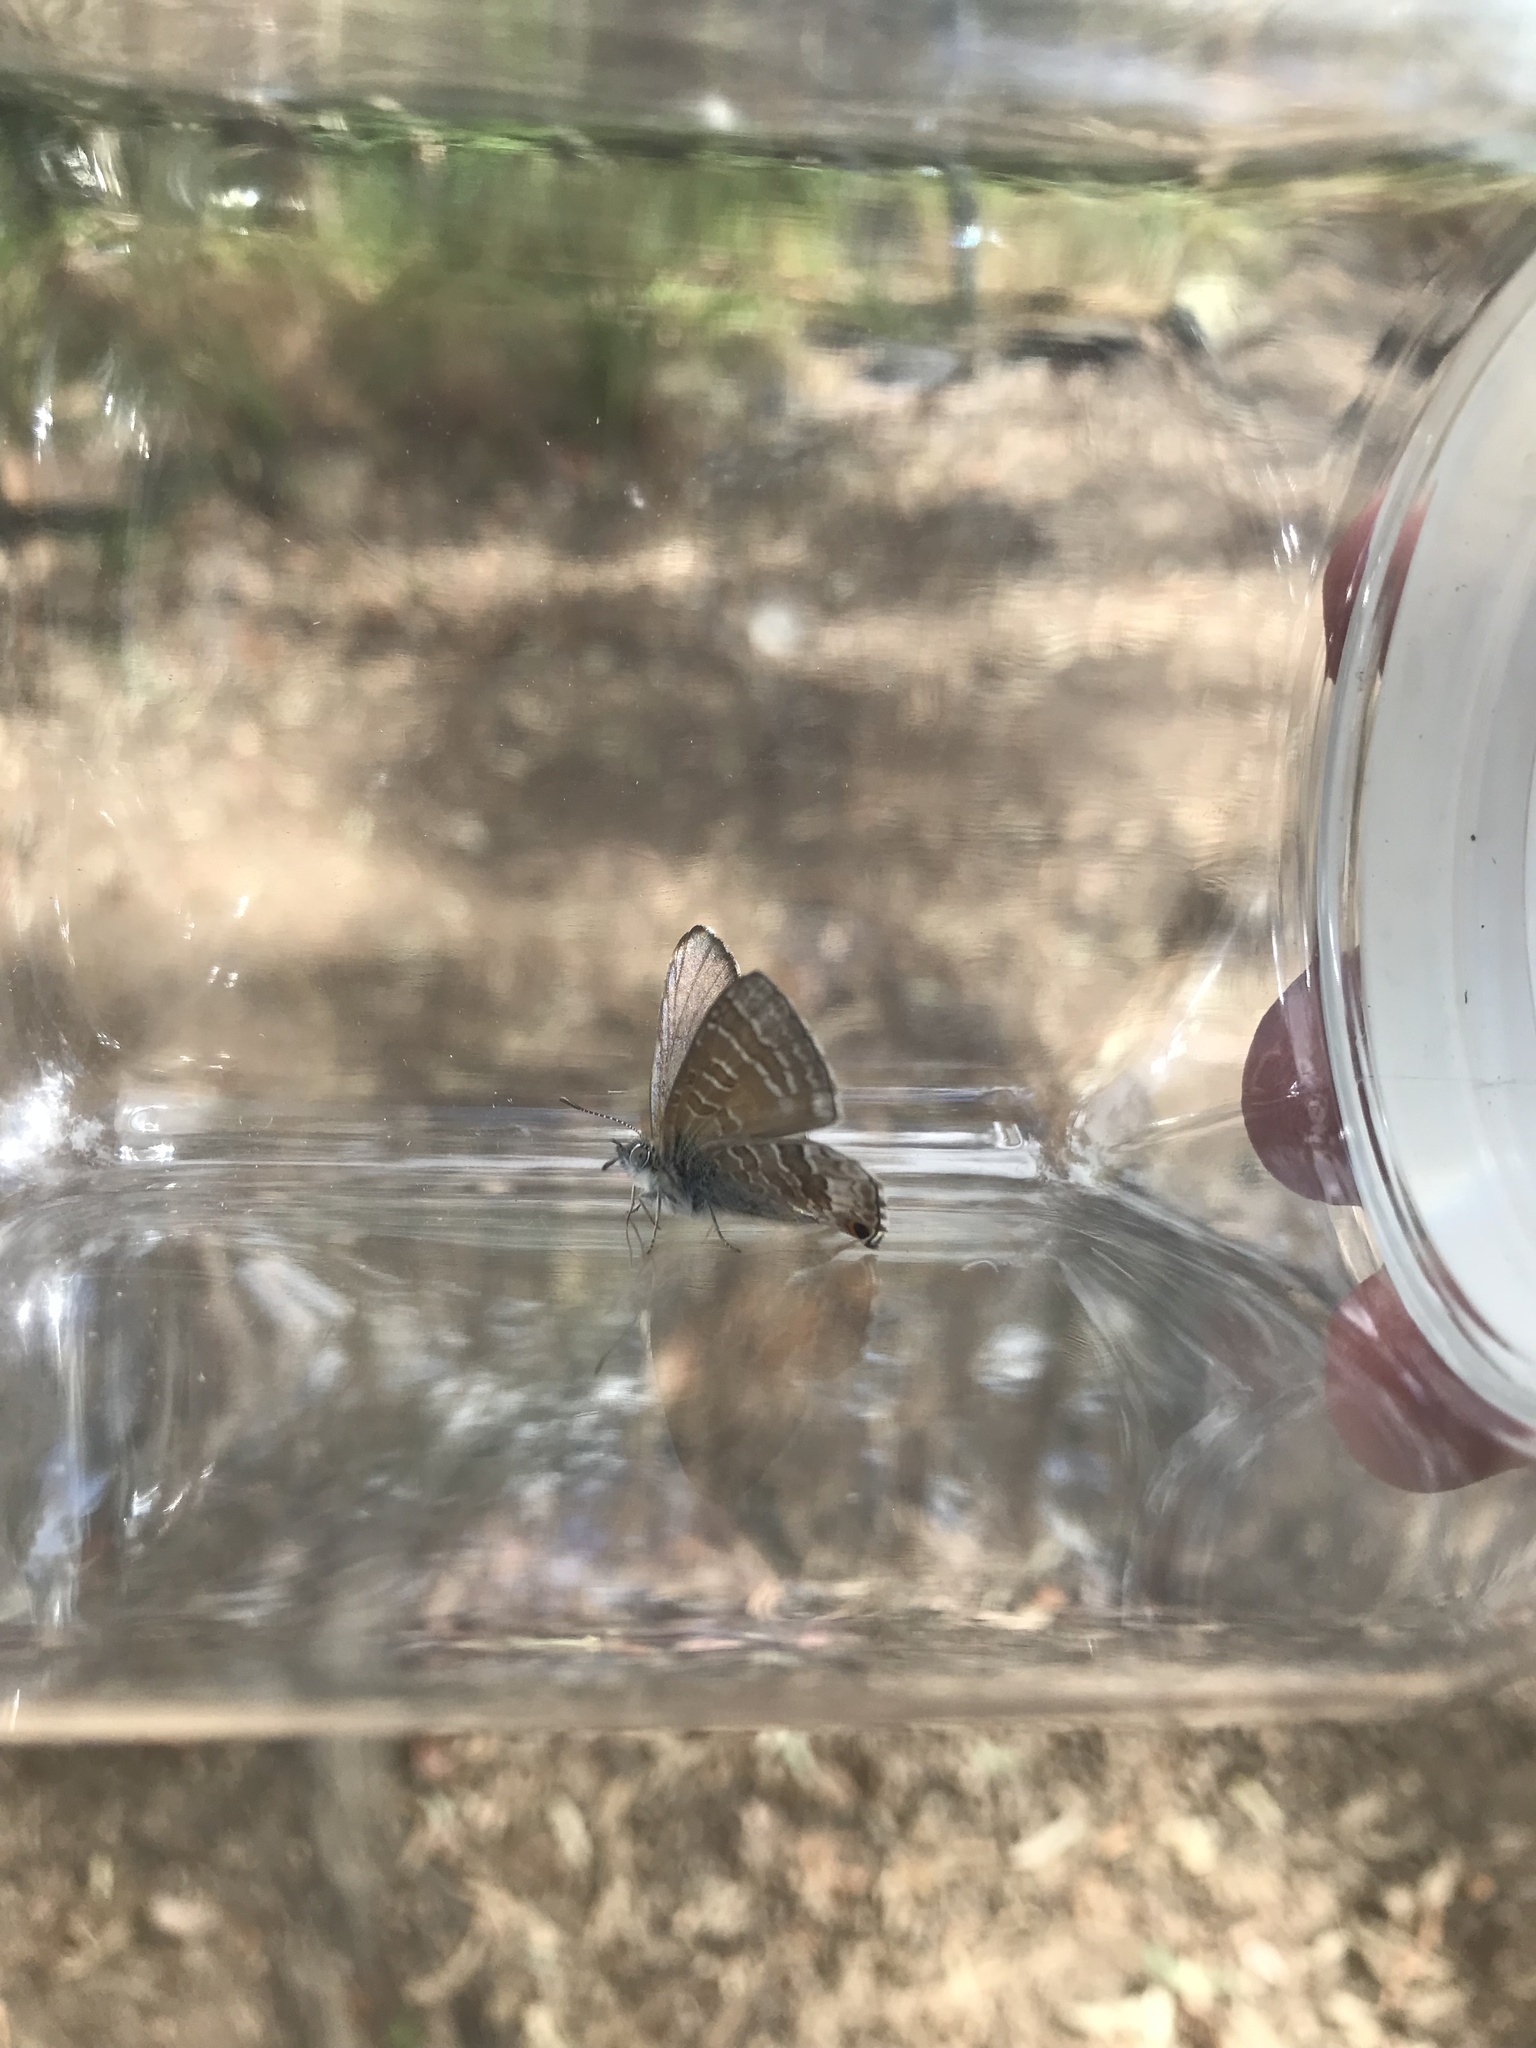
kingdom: Animalia
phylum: Arthropoda
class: Insecta
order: Lepidoptera
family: Lycaenidae
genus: Theclinesthes
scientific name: Theclinesthes miskini
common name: Wattle blue
